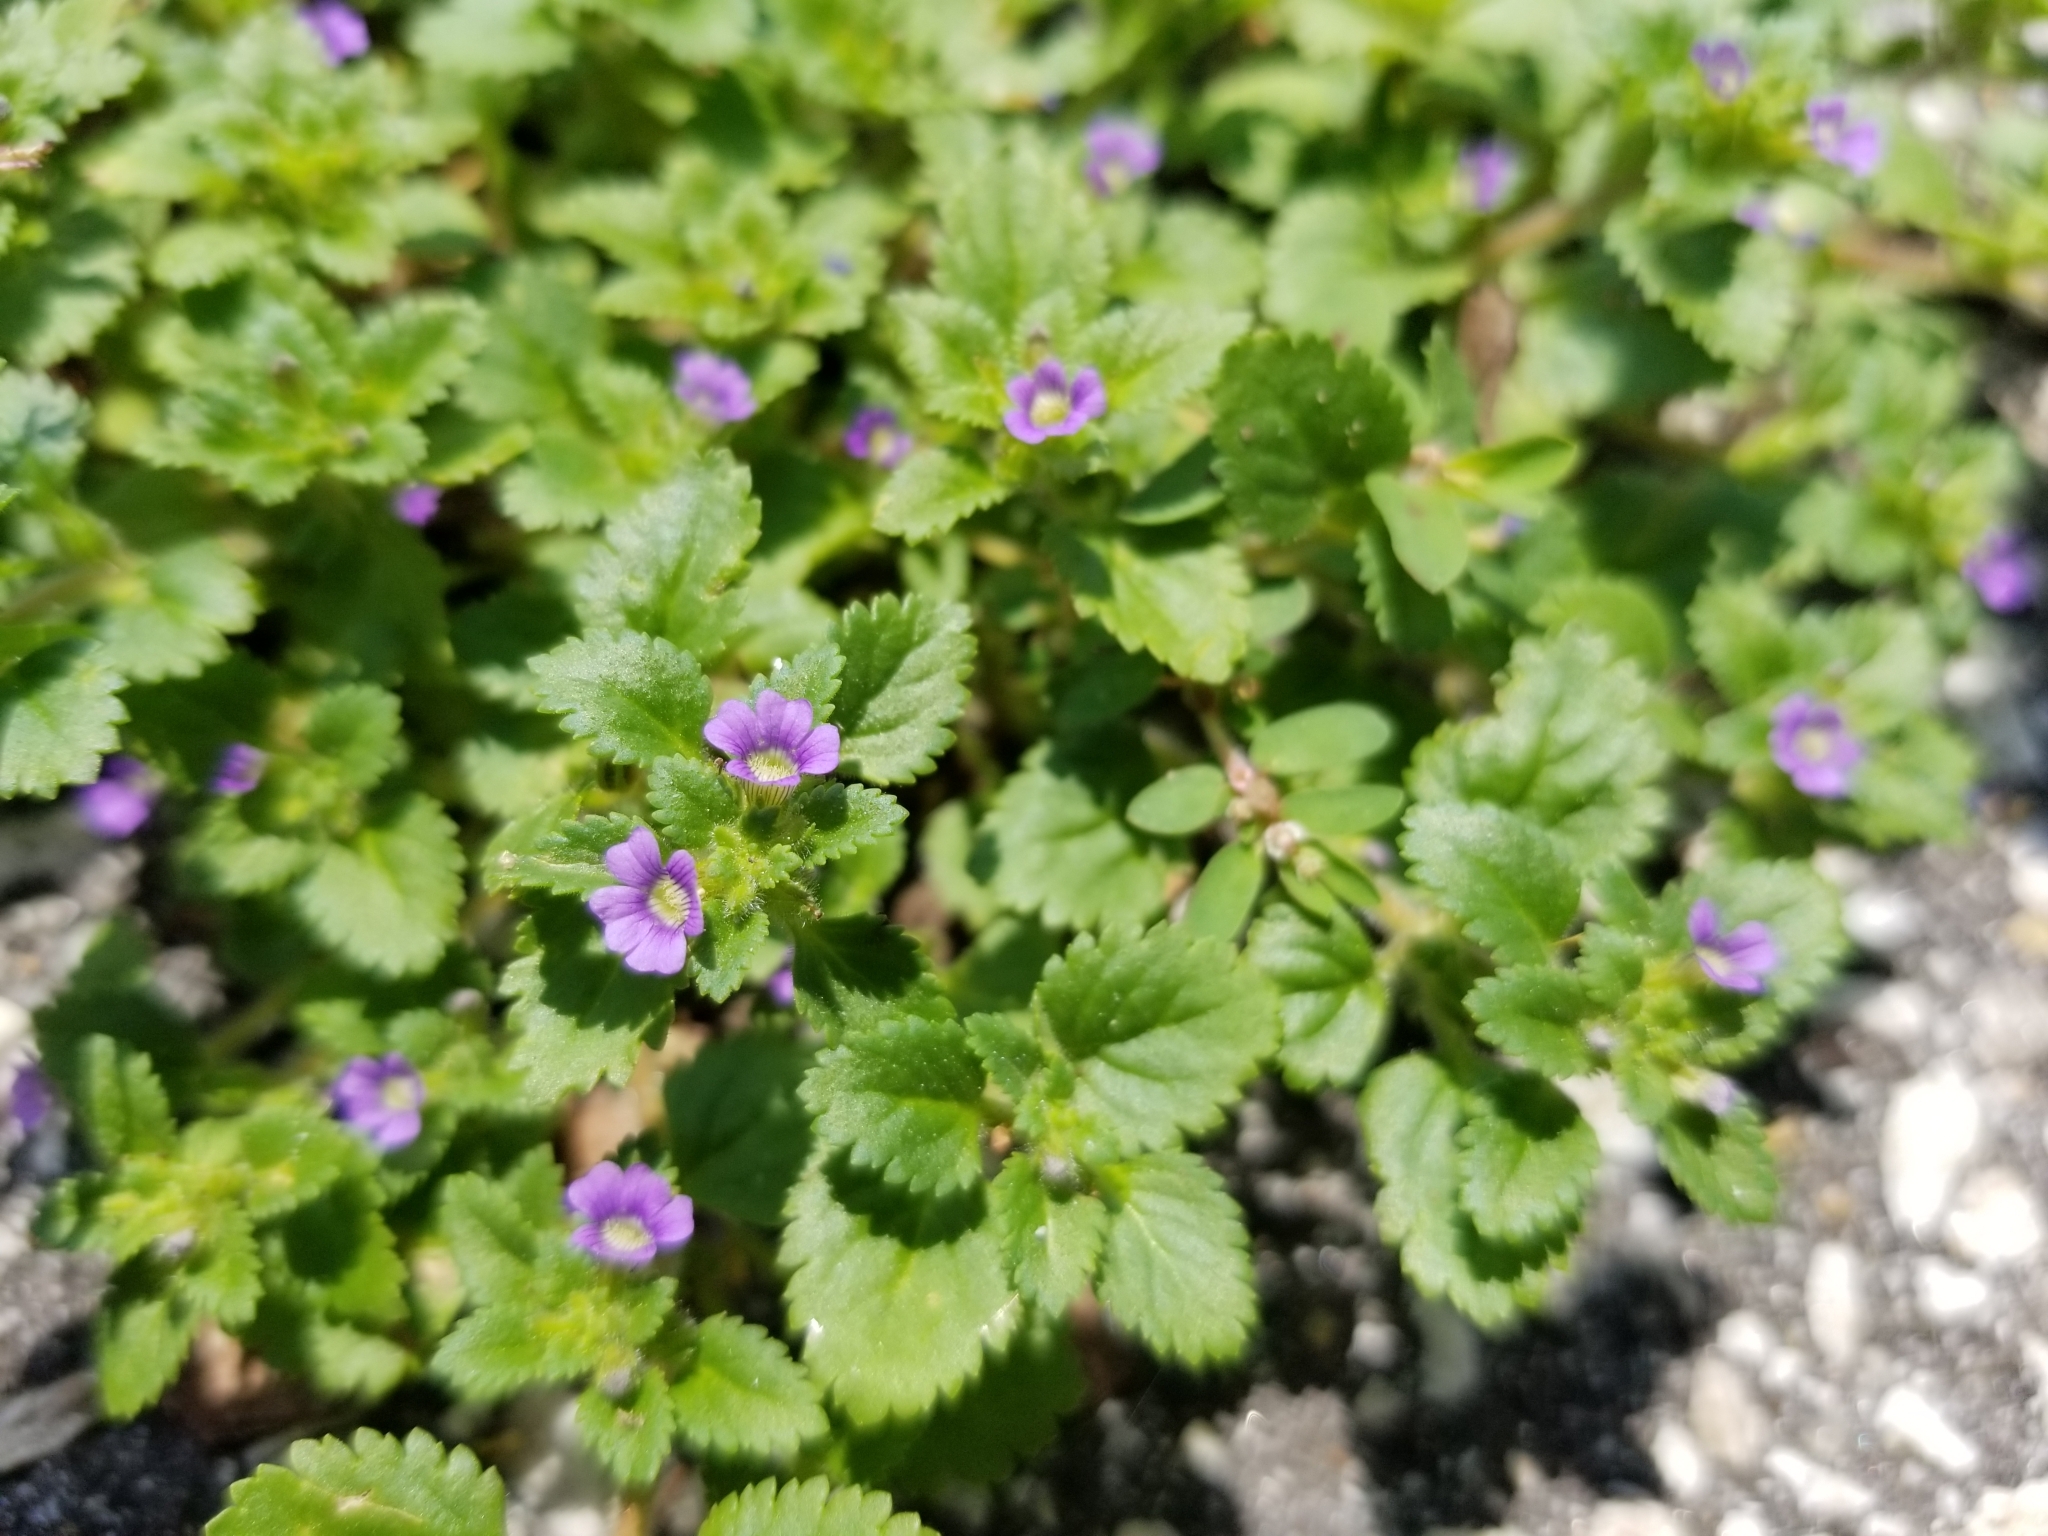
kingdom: Plantae
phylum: Tracheophyta
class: Magnoliopsida
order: Lamiales
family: Plantaginaceae
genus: Stemodia
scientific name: Stemodia verticillata
